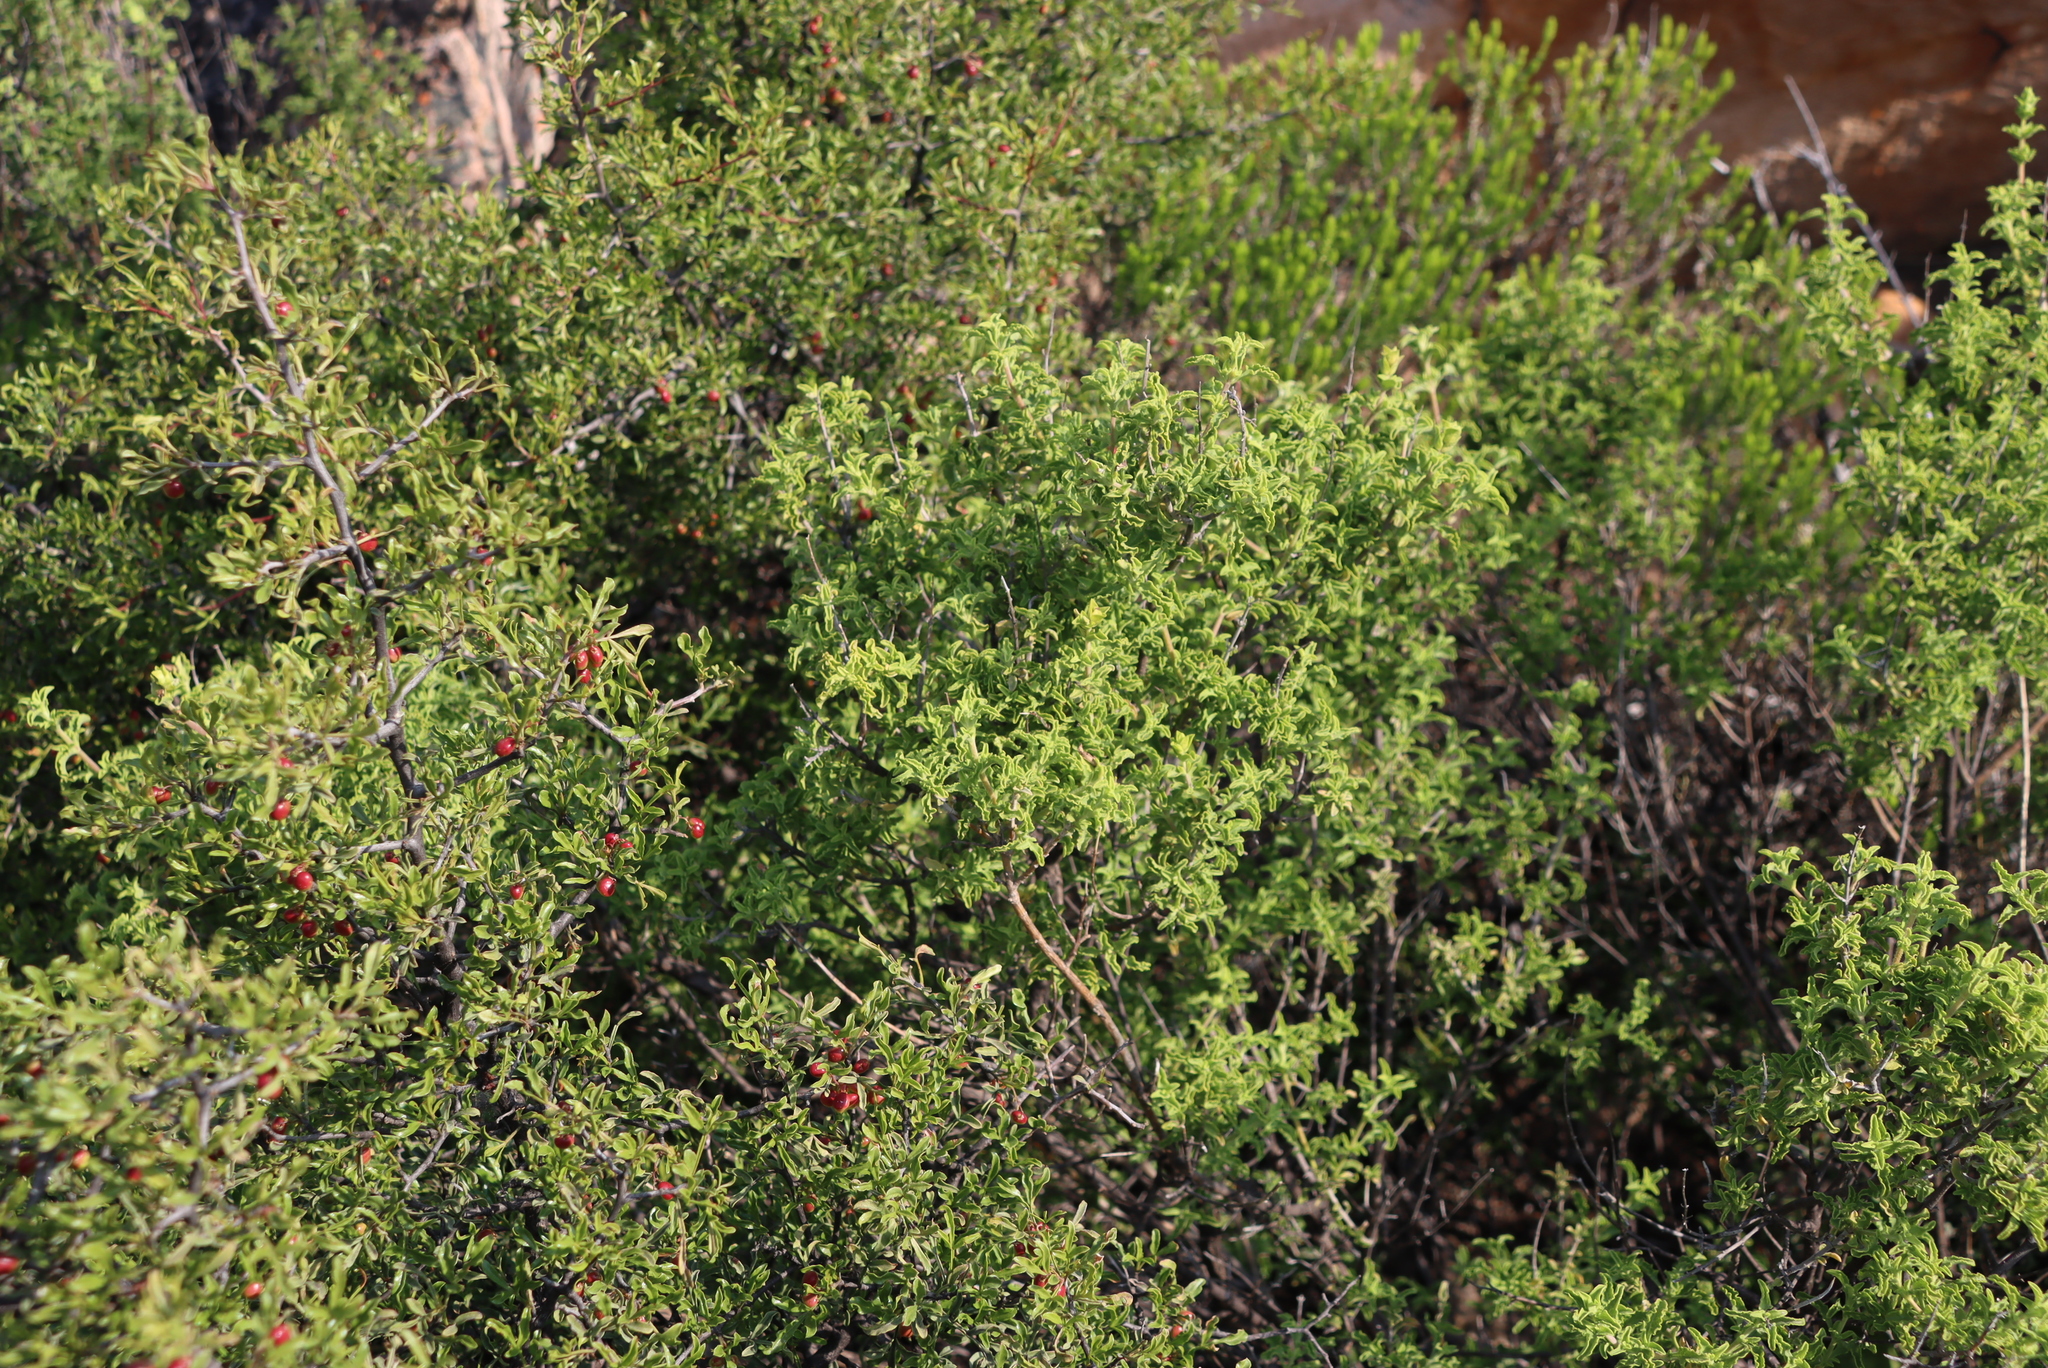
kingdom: Plantae
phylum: Tracheophyta
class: Magnoliopsida
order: Geraniales
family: Geraniaceae
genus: Pelargonium
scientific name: Pelargonium scabrum
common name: Apricot geranium
